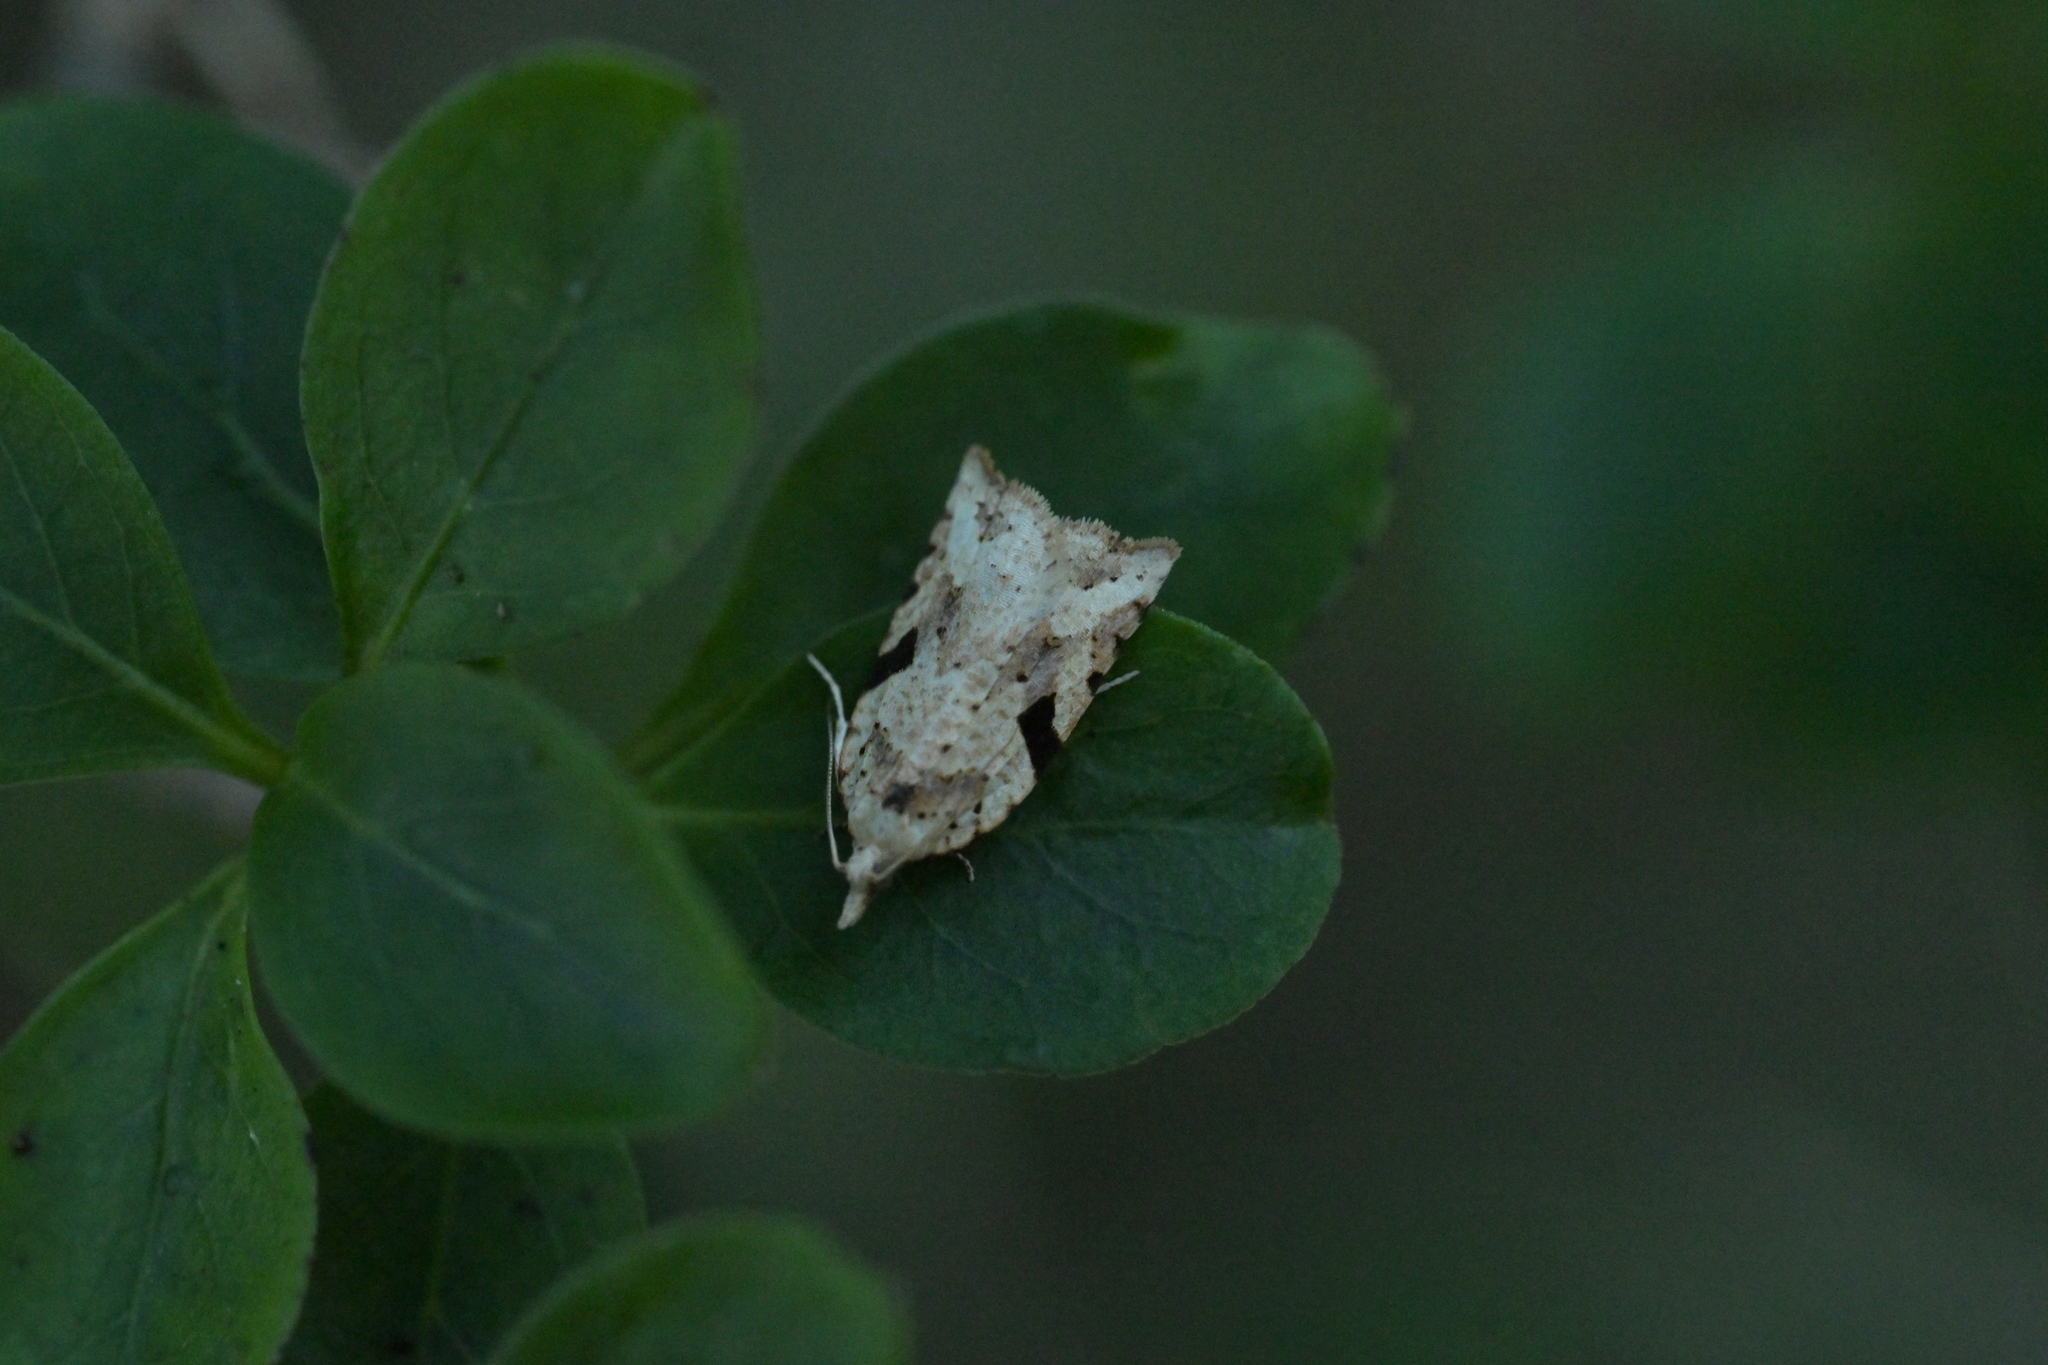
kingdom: Animalia
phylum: Arthropoda
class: Insecta
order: Lepidoptera
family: Tortricidae
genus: Leucotenes
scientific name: Leucotenes coprosmae
